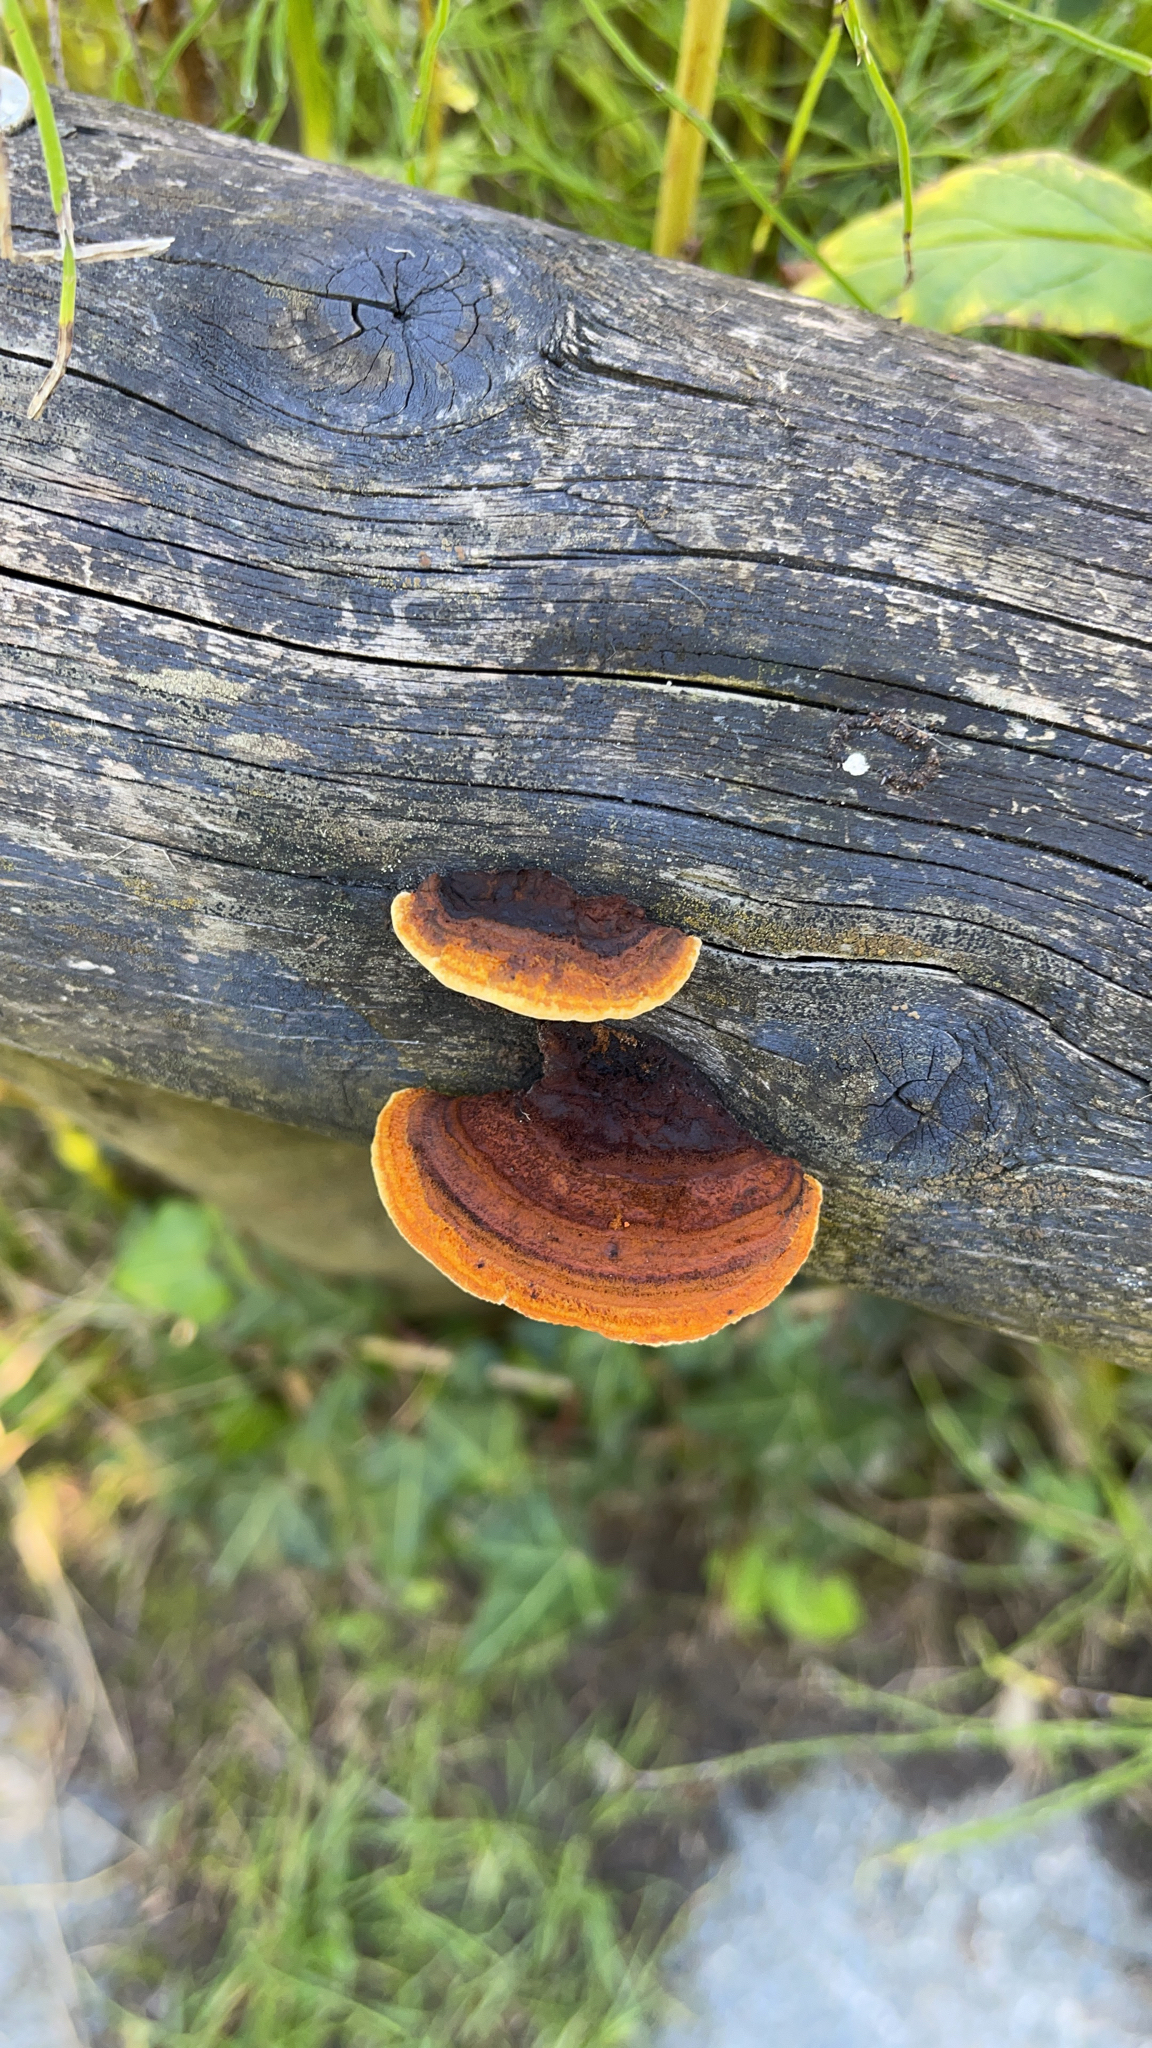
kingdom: Fungi
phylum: Basidiomycota
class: Agaricomycetes
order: Gloeophyllales
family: Gloeophyllaceae
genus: Gloeophyllum
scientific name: Gloeophyllum sepiarium
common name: Conifer mazegill
